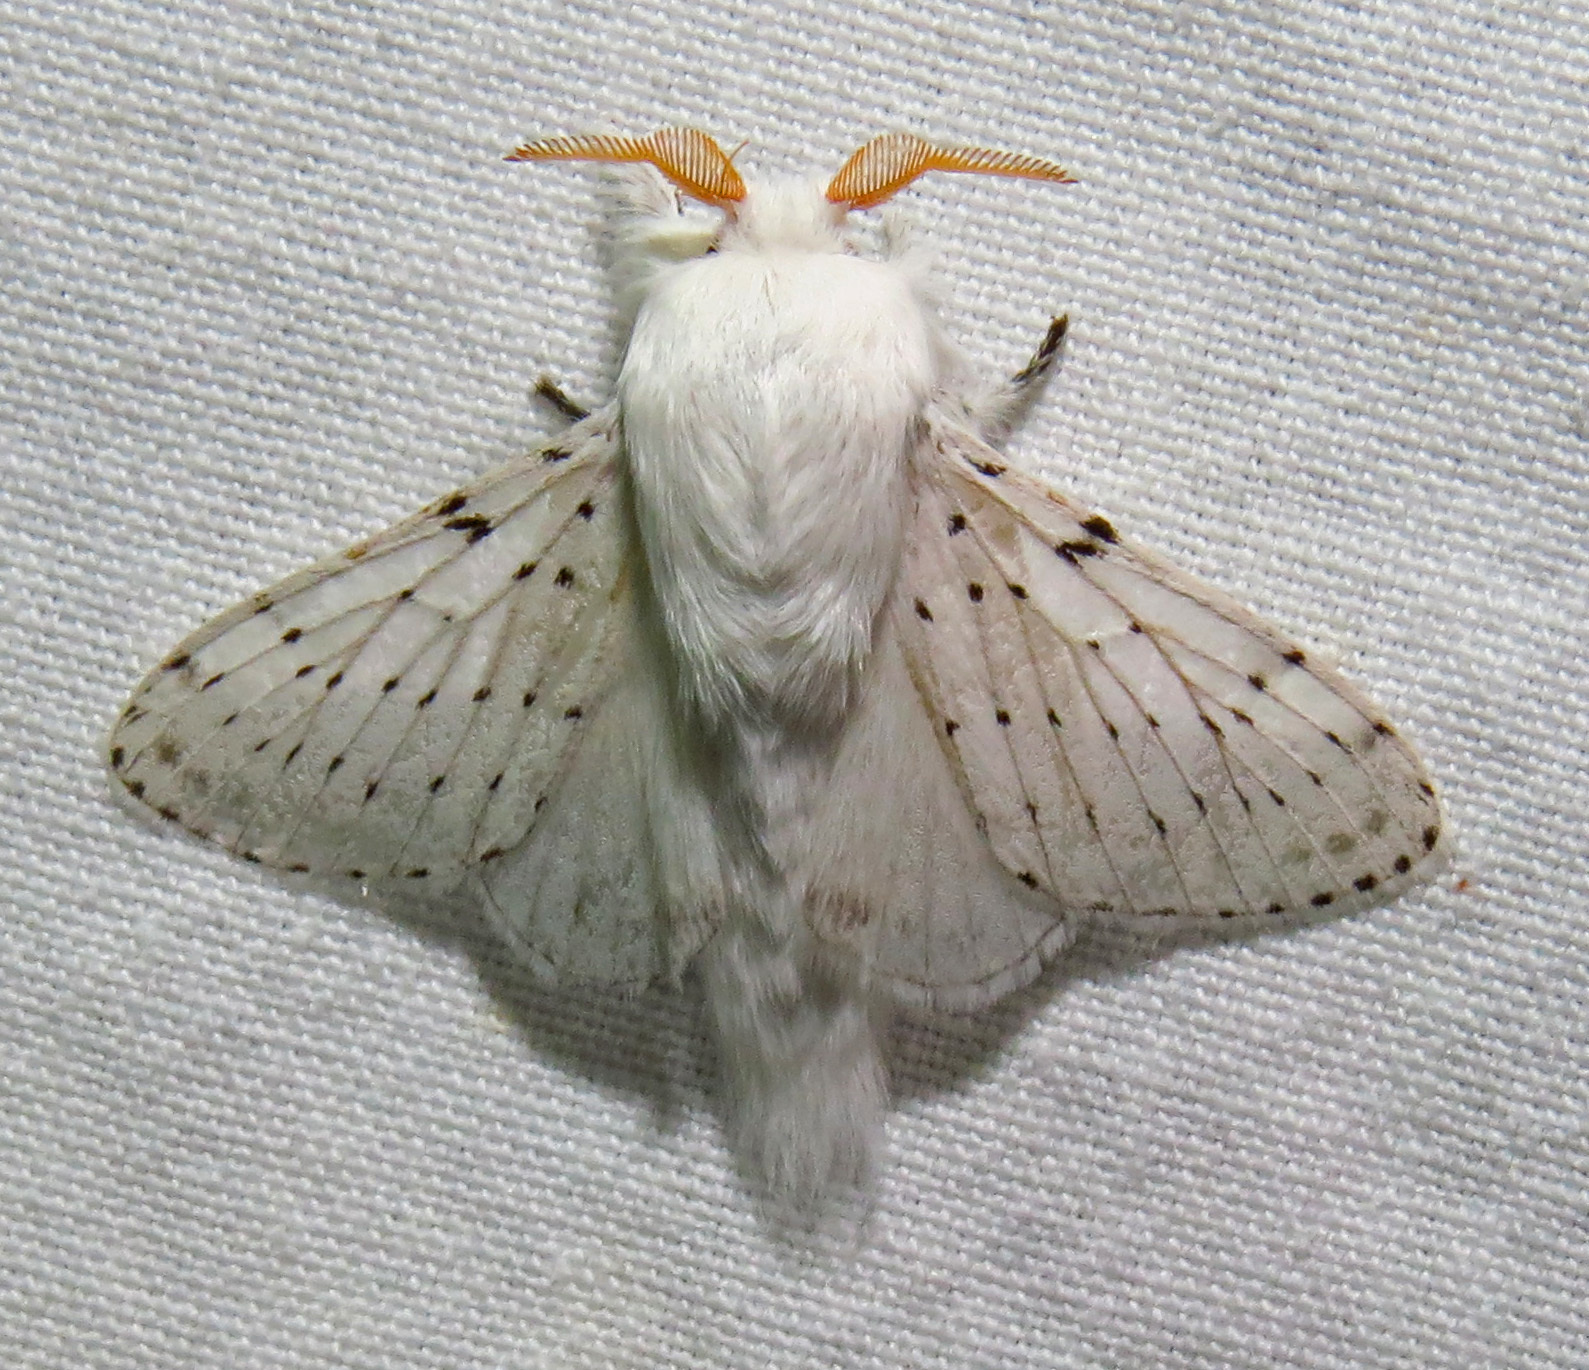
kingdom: Animalia
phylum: Arthropoda
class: Insecta
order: Lepidoptera
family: Lasiocampidae
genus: Artace
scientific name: Artace cribrarius
